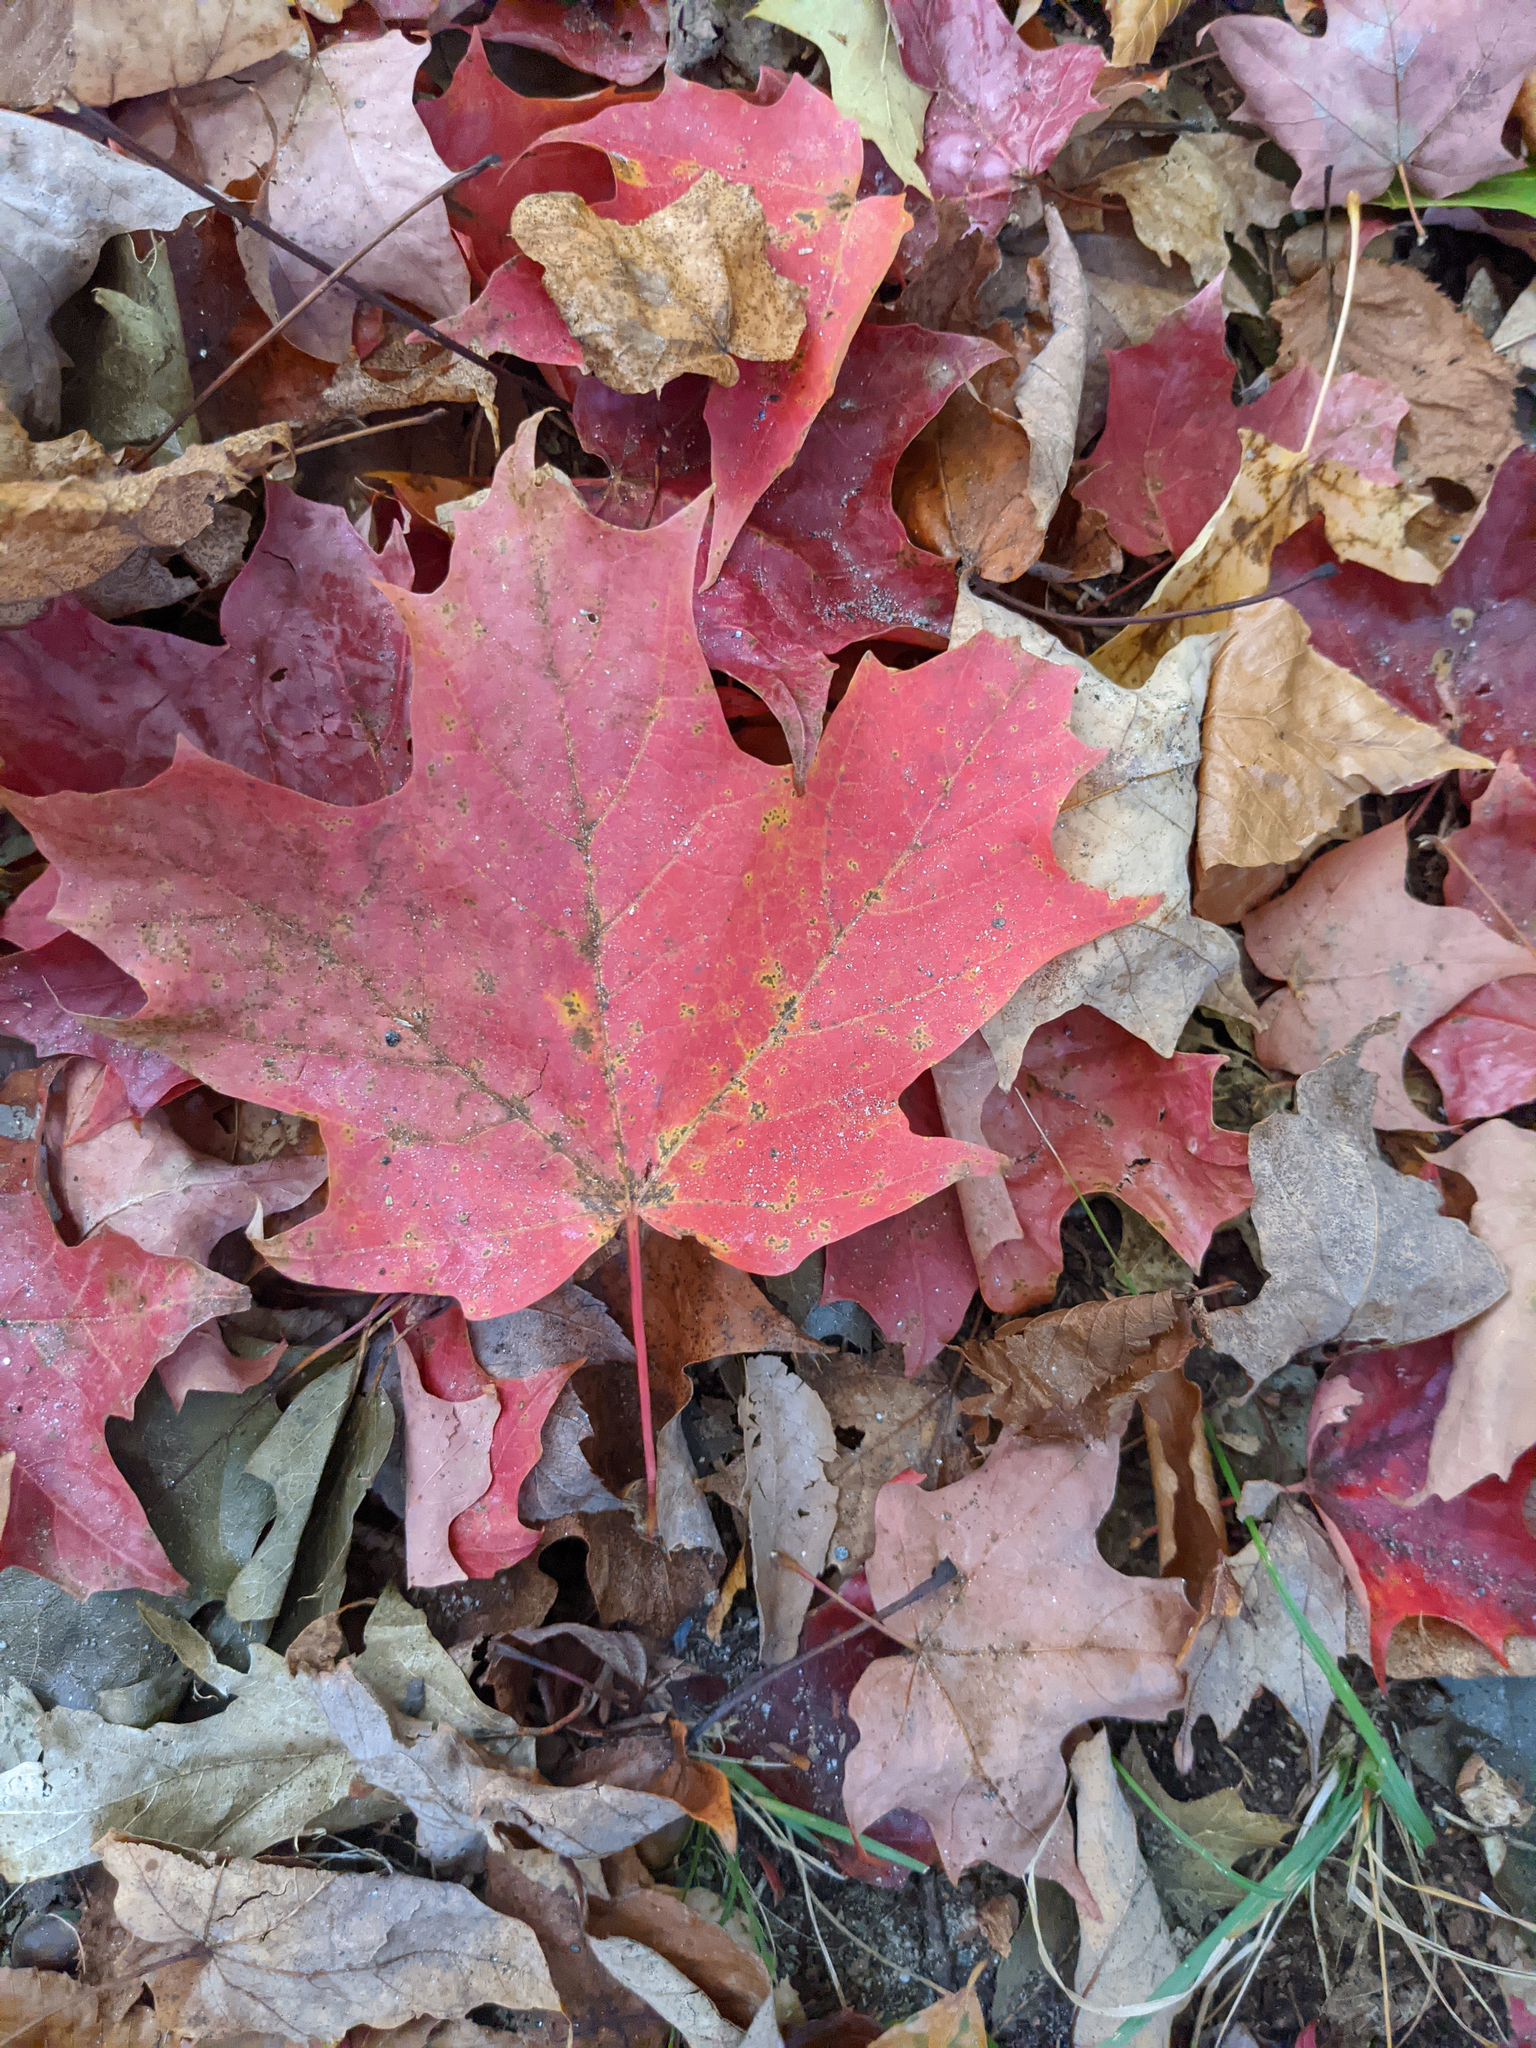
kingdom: Plantae
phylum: Tracheophyta
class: Magnoliopsida
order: Sapindales
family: Sapindaceae
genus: Acer
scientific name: Acer saccharum
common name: Sugar maple
